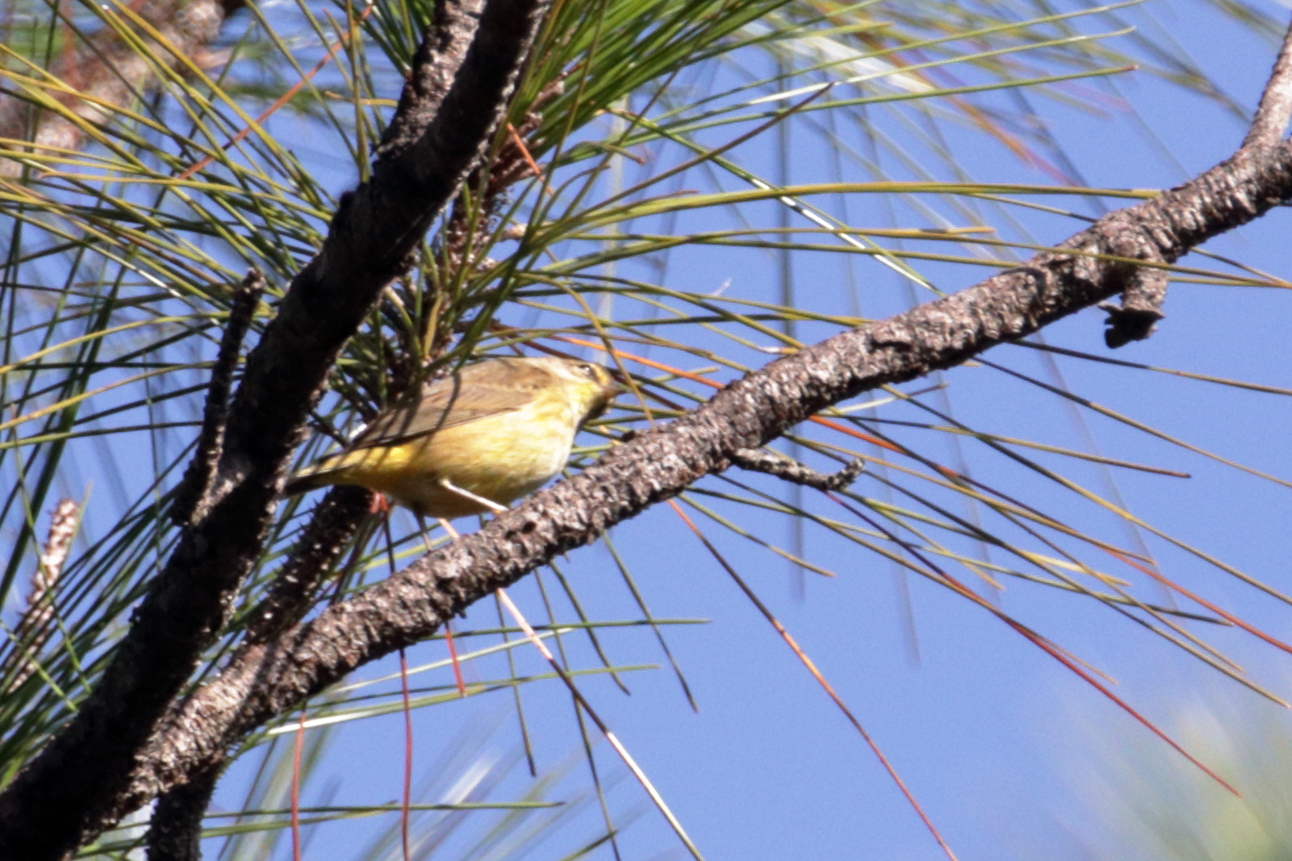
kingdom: Animalia
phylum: Chordata
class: Aves
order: Passeriformes
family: Parulidae
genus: Setophaga
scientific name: Setophaga palmarum
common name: Palm warbler
